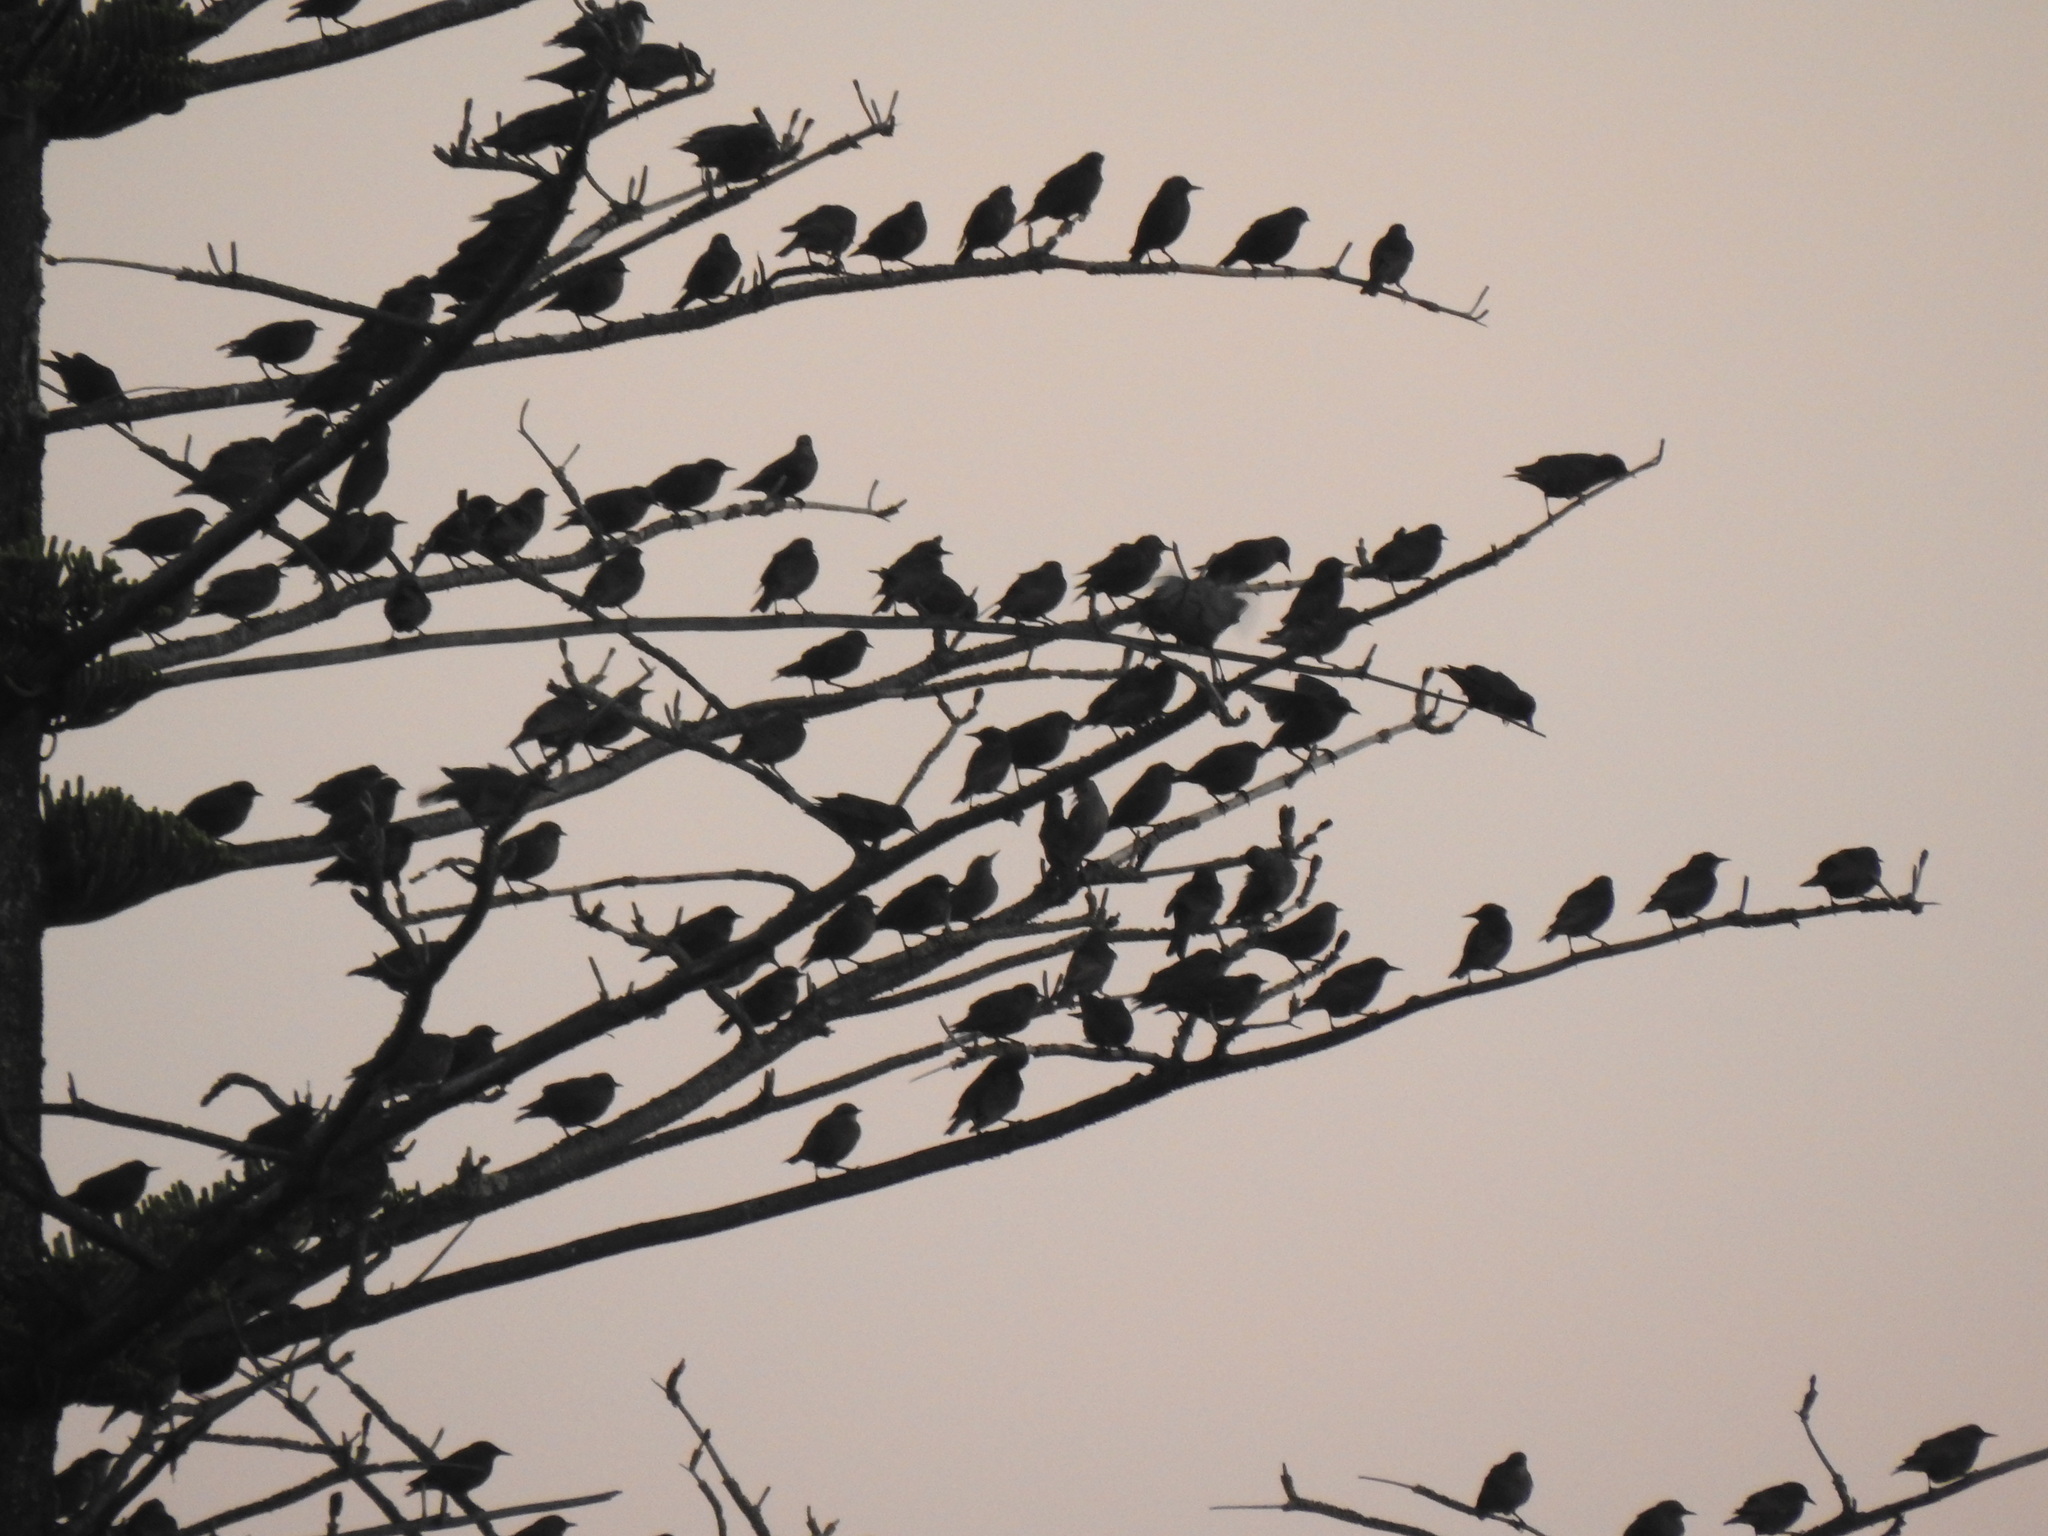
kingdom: Animalia
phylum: Chordata
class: Aves
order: Passeriformes
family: Sturnidae
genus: Sturnus
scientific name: Sturnus unicolor
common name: Spotless starling
